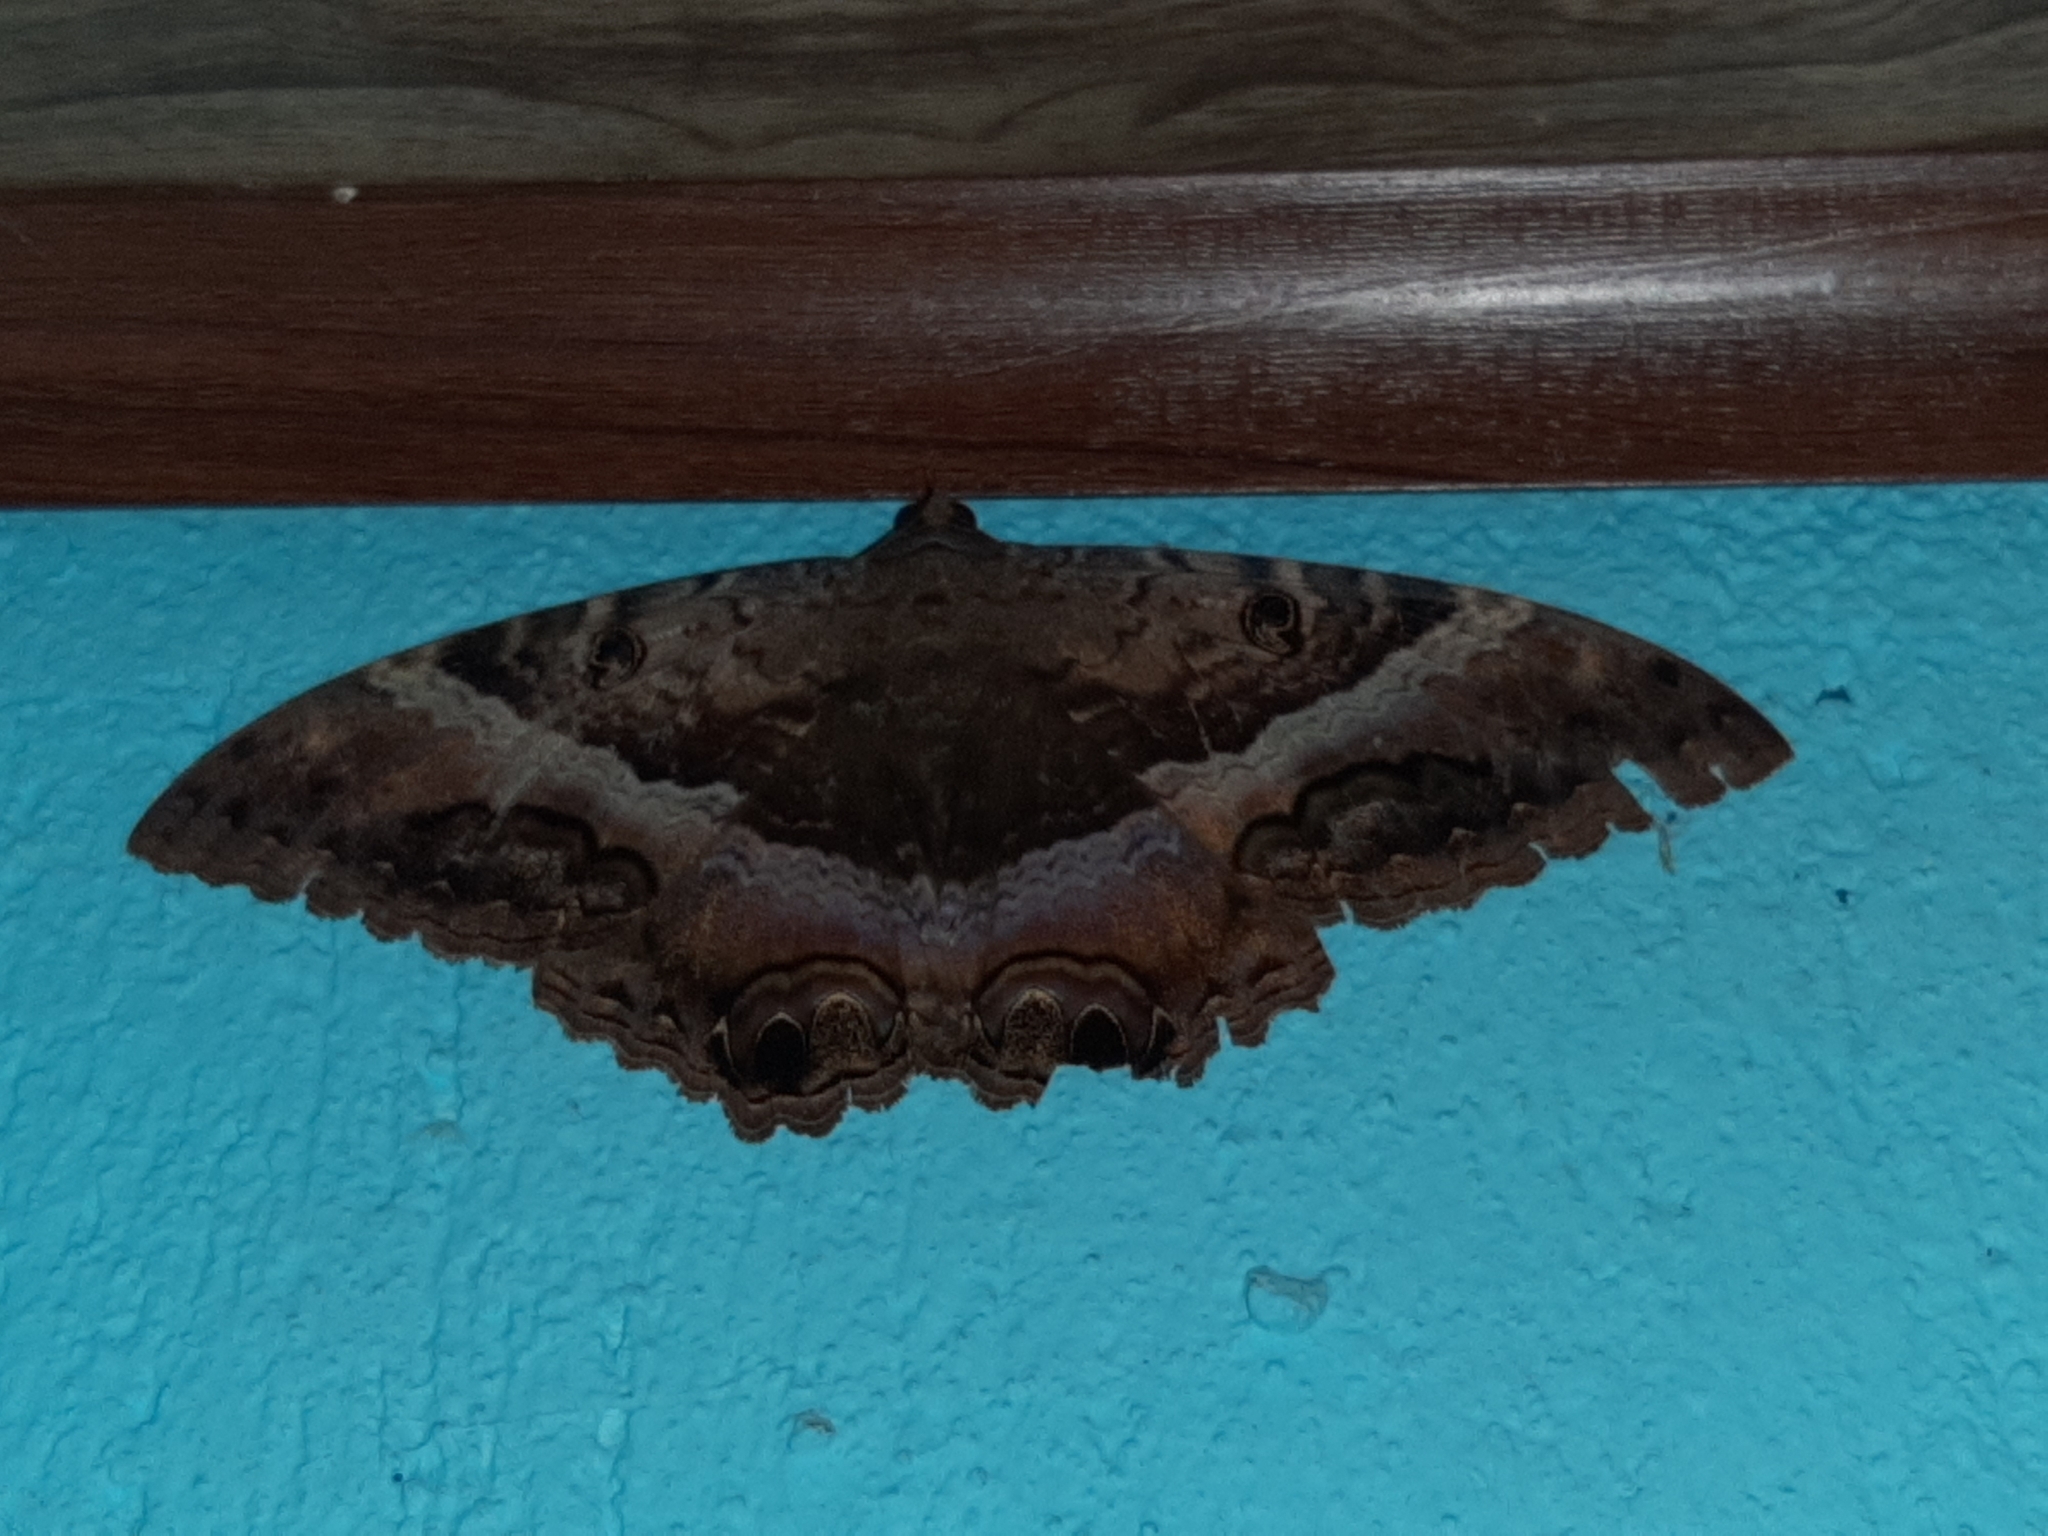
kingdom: Animalia
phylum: Arthropoda
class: Insecta
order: Lepidoptera
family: Erebidae
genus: Ascalapha
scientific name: Ascalapha odorata
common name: Black witch
